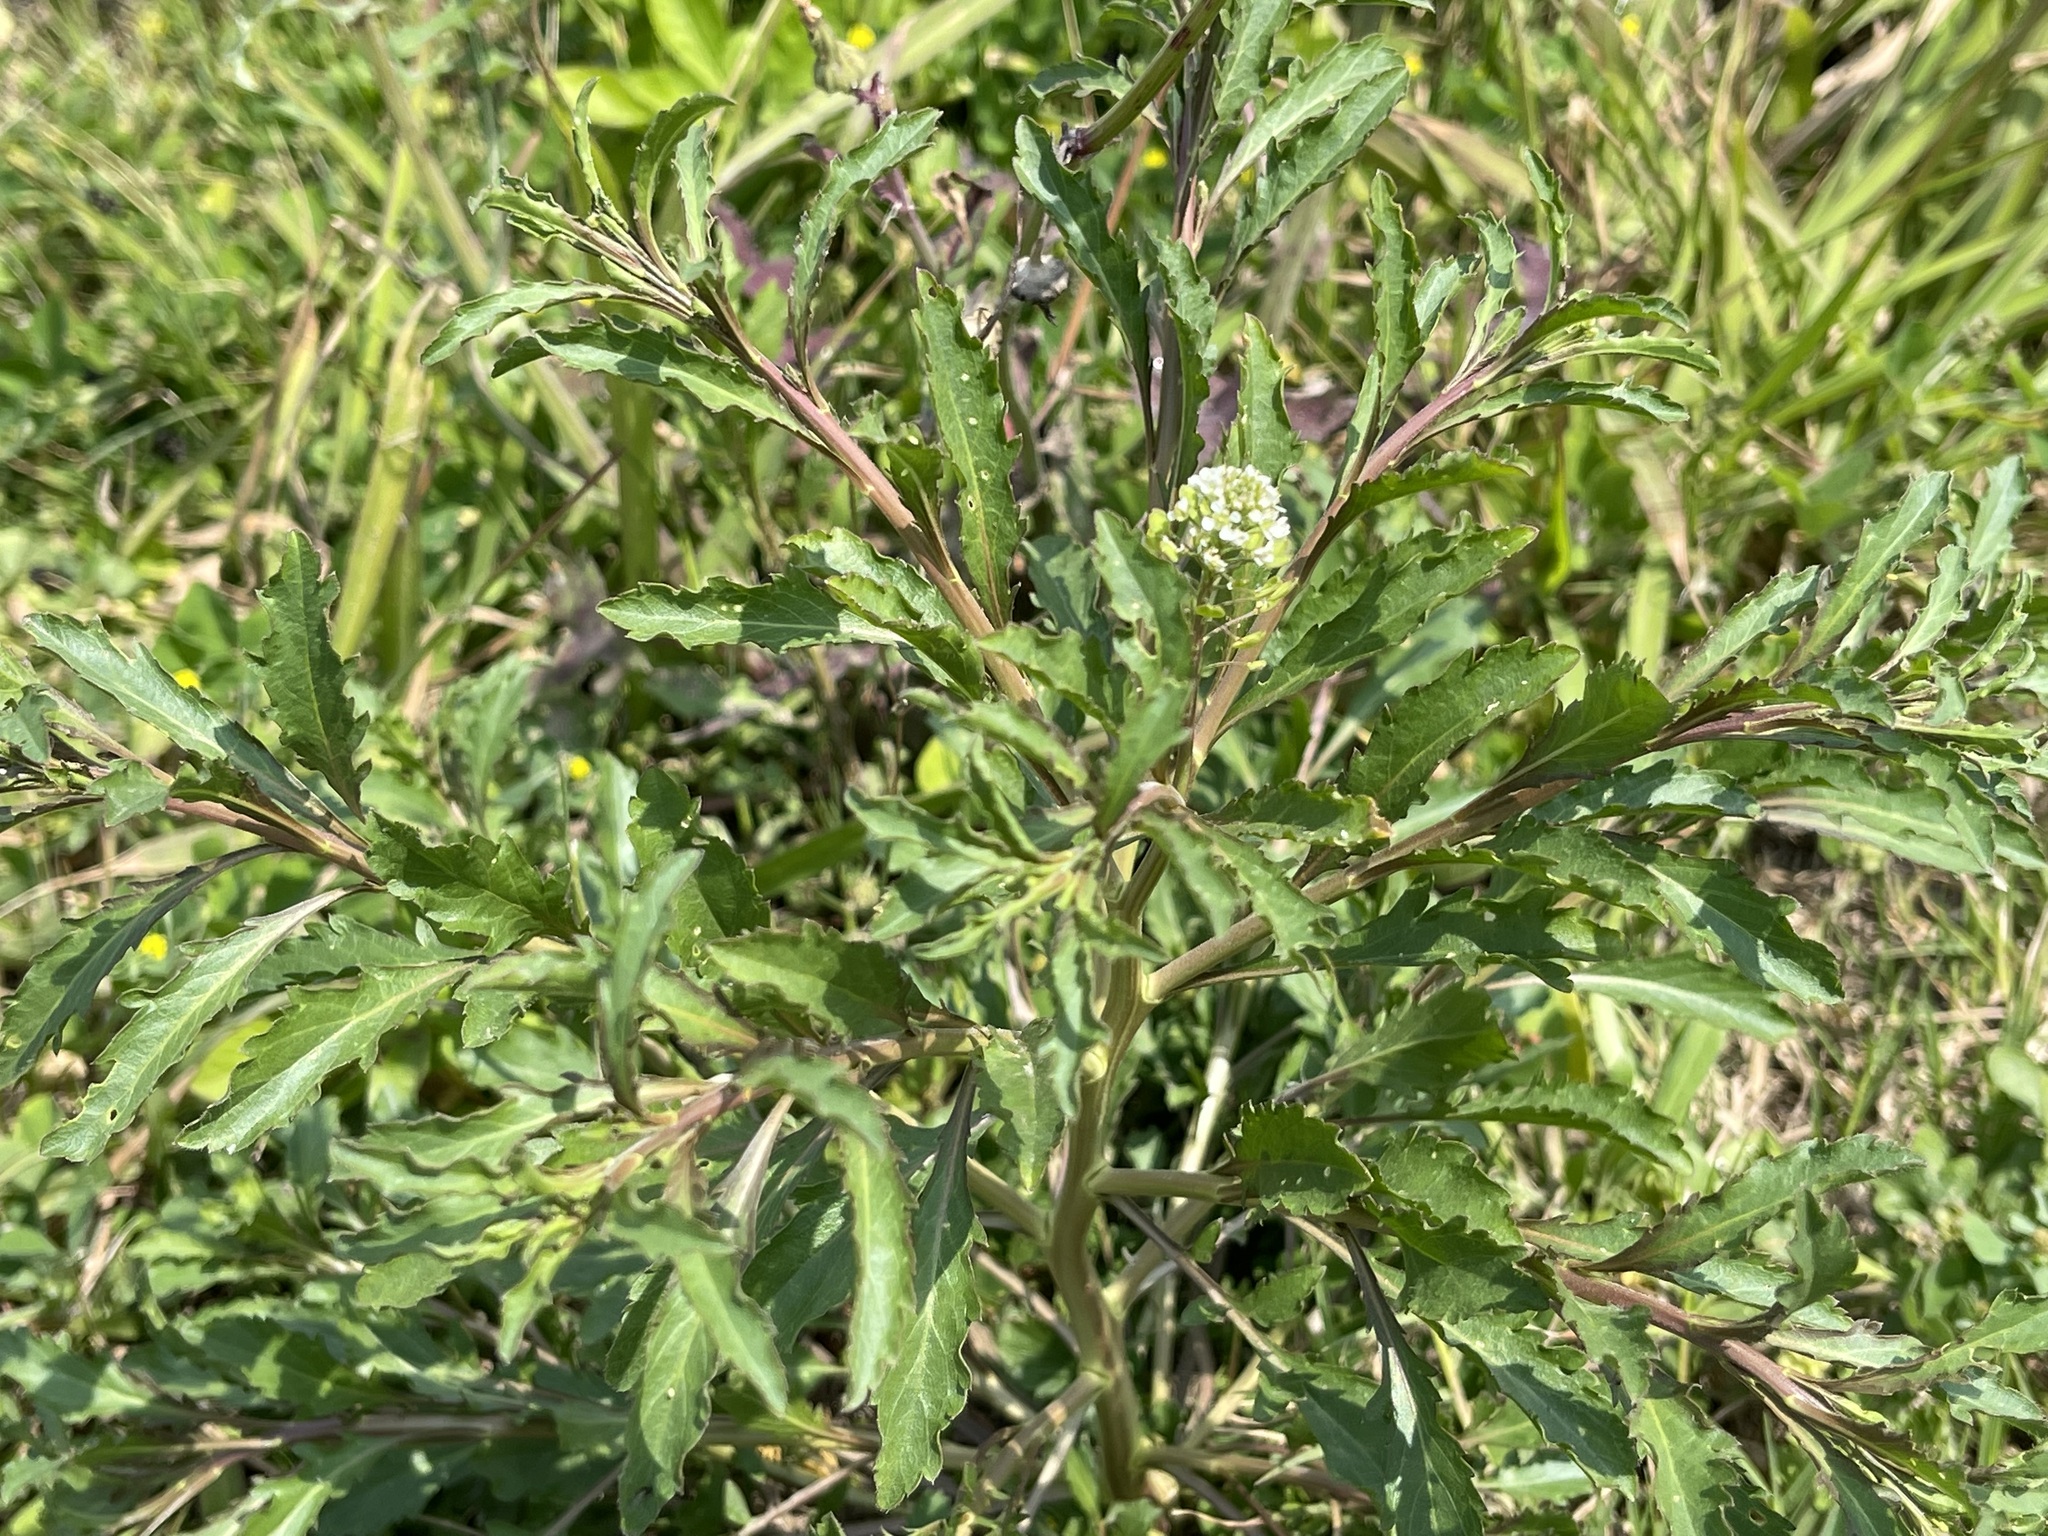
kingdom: Plantae
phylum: Tracheophyta
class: Magnoliopsida
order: Brassicales
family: Brassicaceae
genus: Lepidium
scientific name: Lepidium virginicum
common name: Least pepperwort
